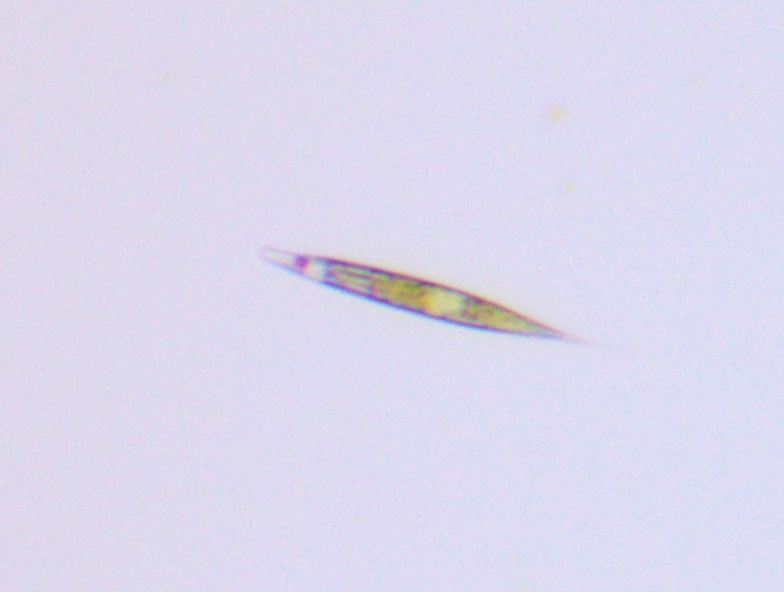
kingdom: Protozoa
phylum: Euglenozoa
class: Euglenoidea
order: Euglenida
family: Phacidae
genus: Lepocinclis
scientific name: Lepocinclis acus
